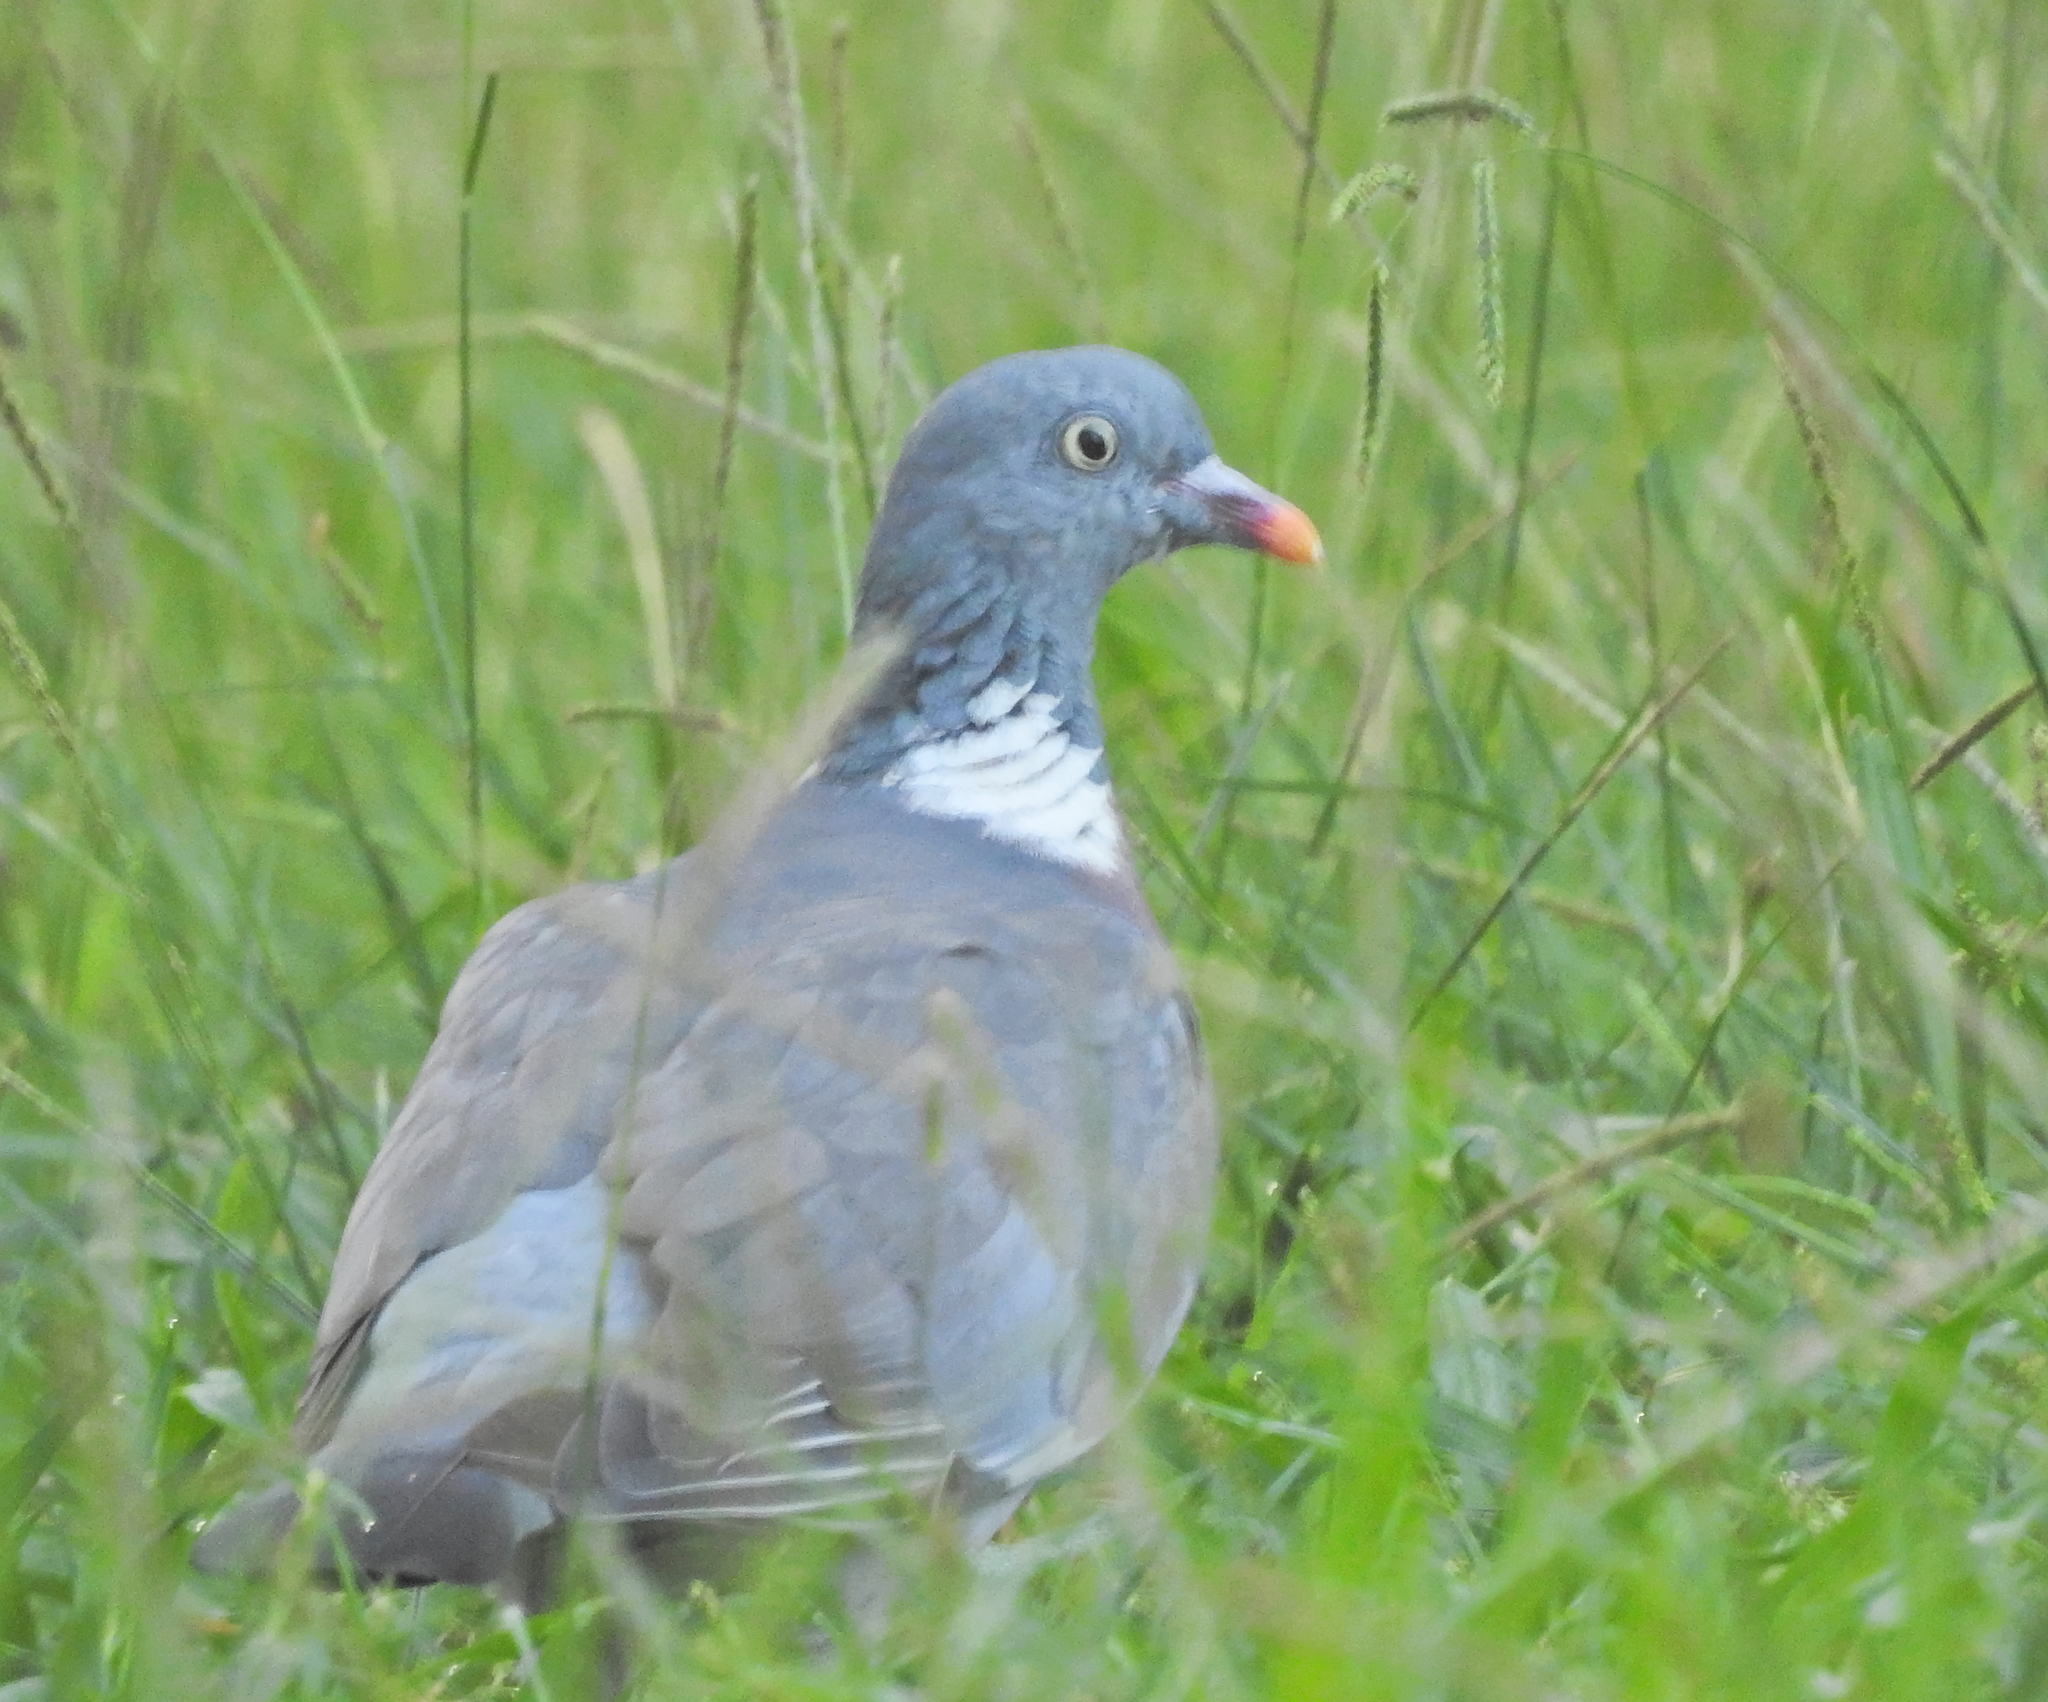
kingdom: Animalia
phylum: Chordata
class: Aves
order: Columbiformes
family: Columbidae
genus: Columba
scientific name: Columba palumbus
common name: Common wood pigeon
